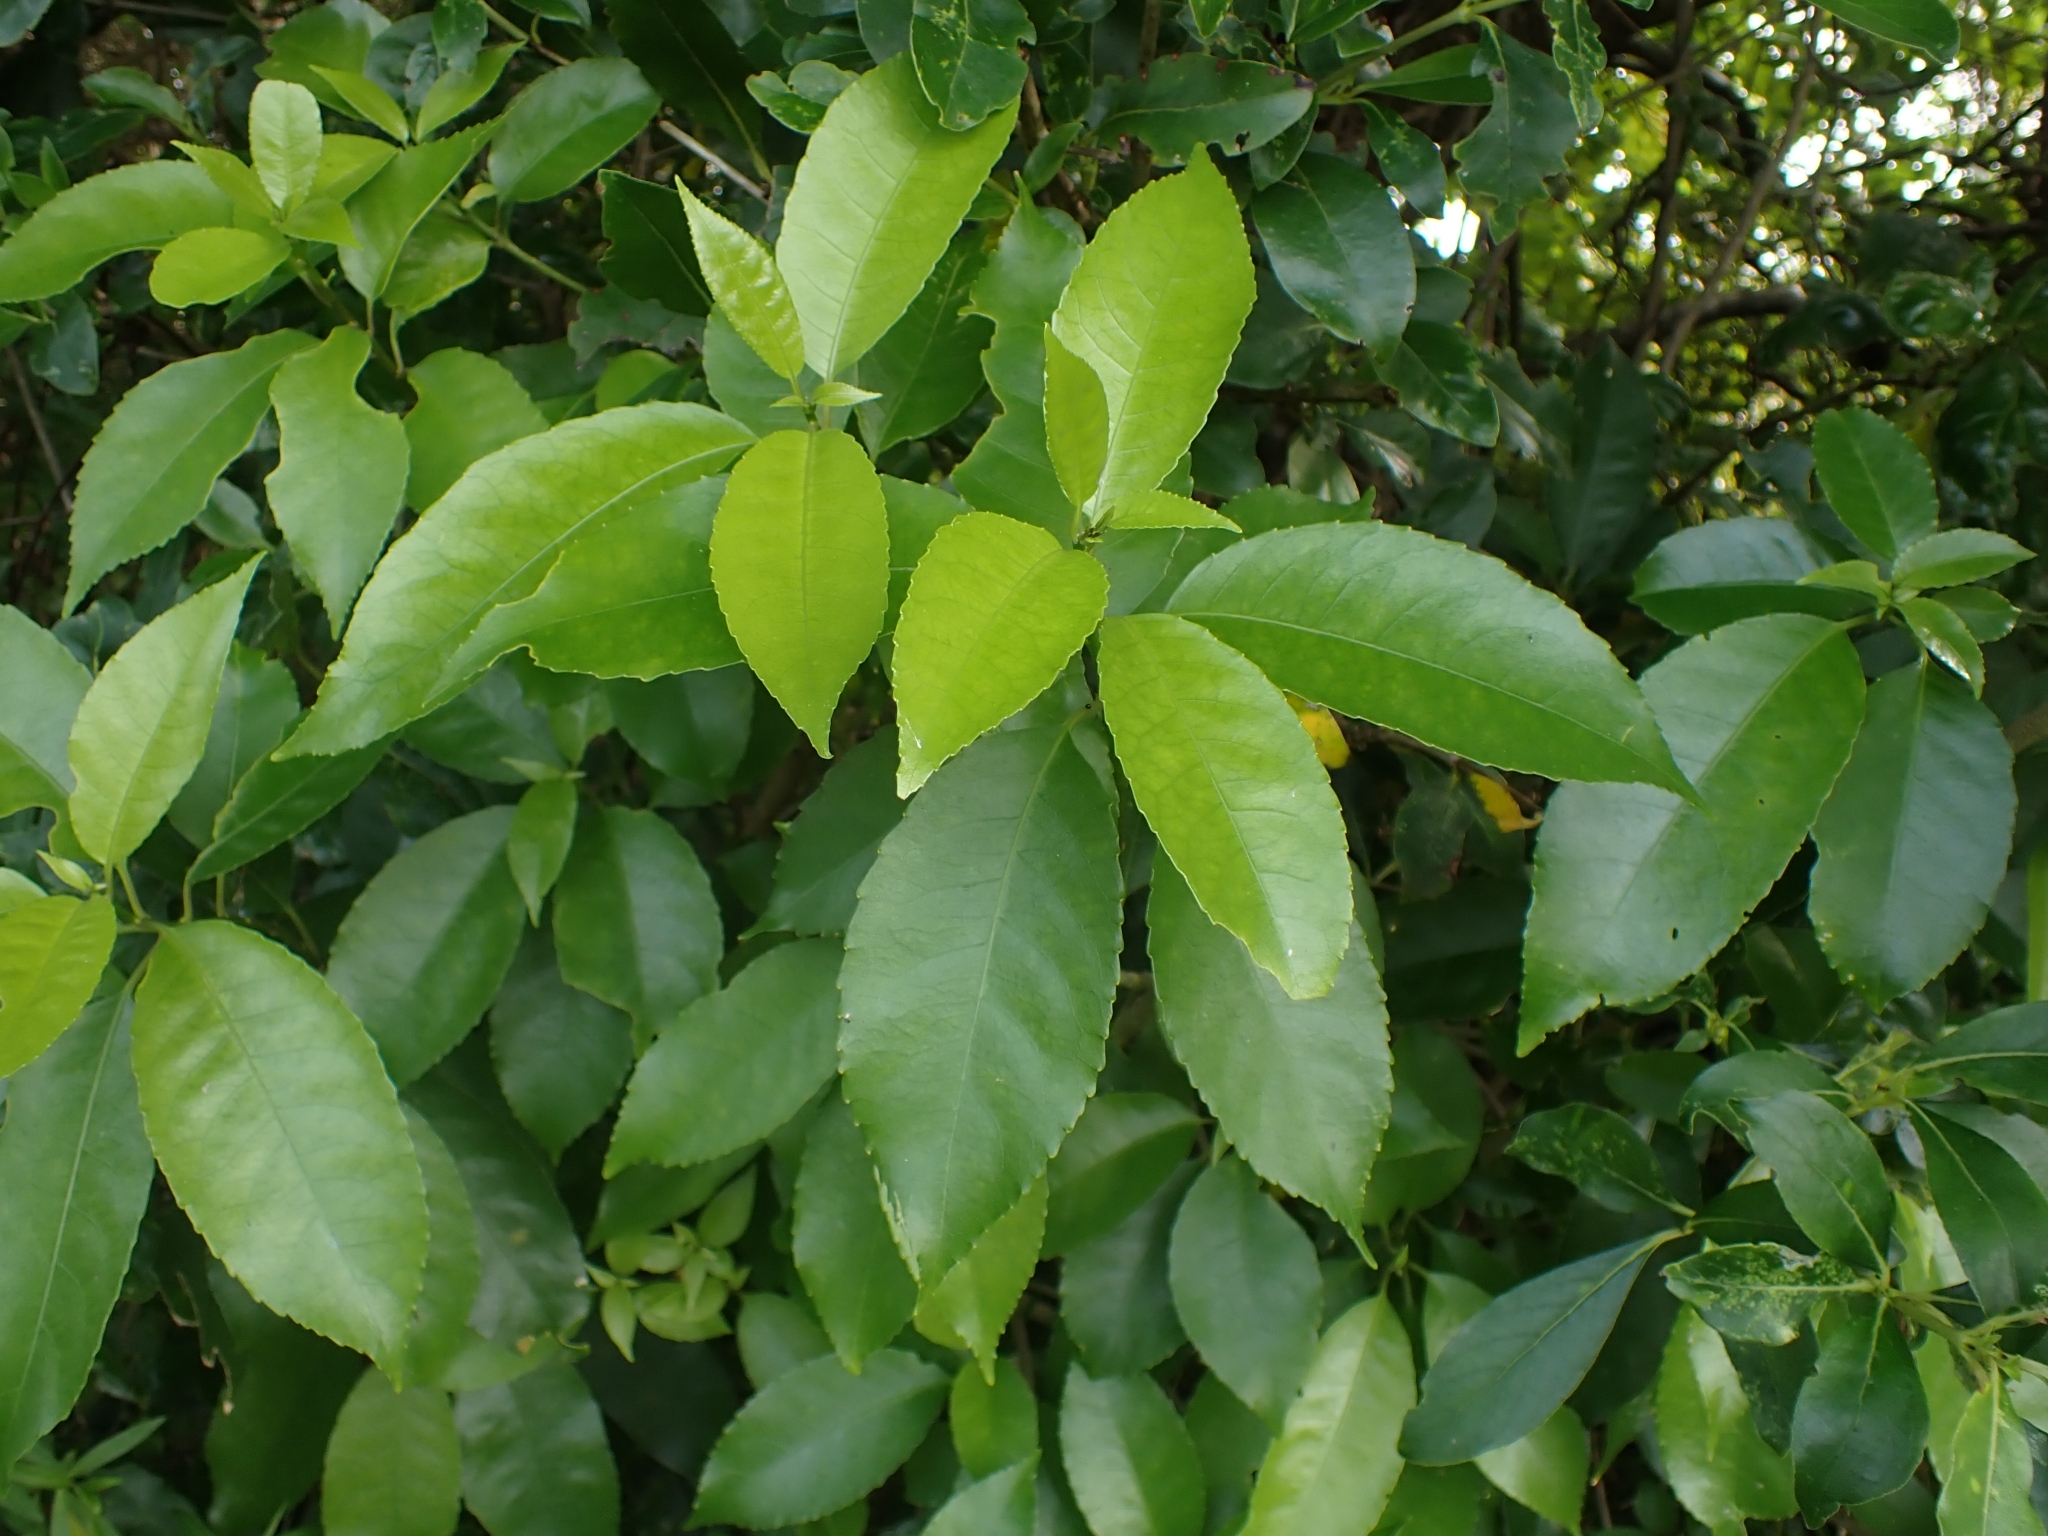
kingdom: Plantae
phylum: Tracheophyta
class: Magnoliopsida
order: Malpighiales
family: Violaceae
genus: Melicytus
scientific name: Melicytus ramiflorus
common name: Mahoe
